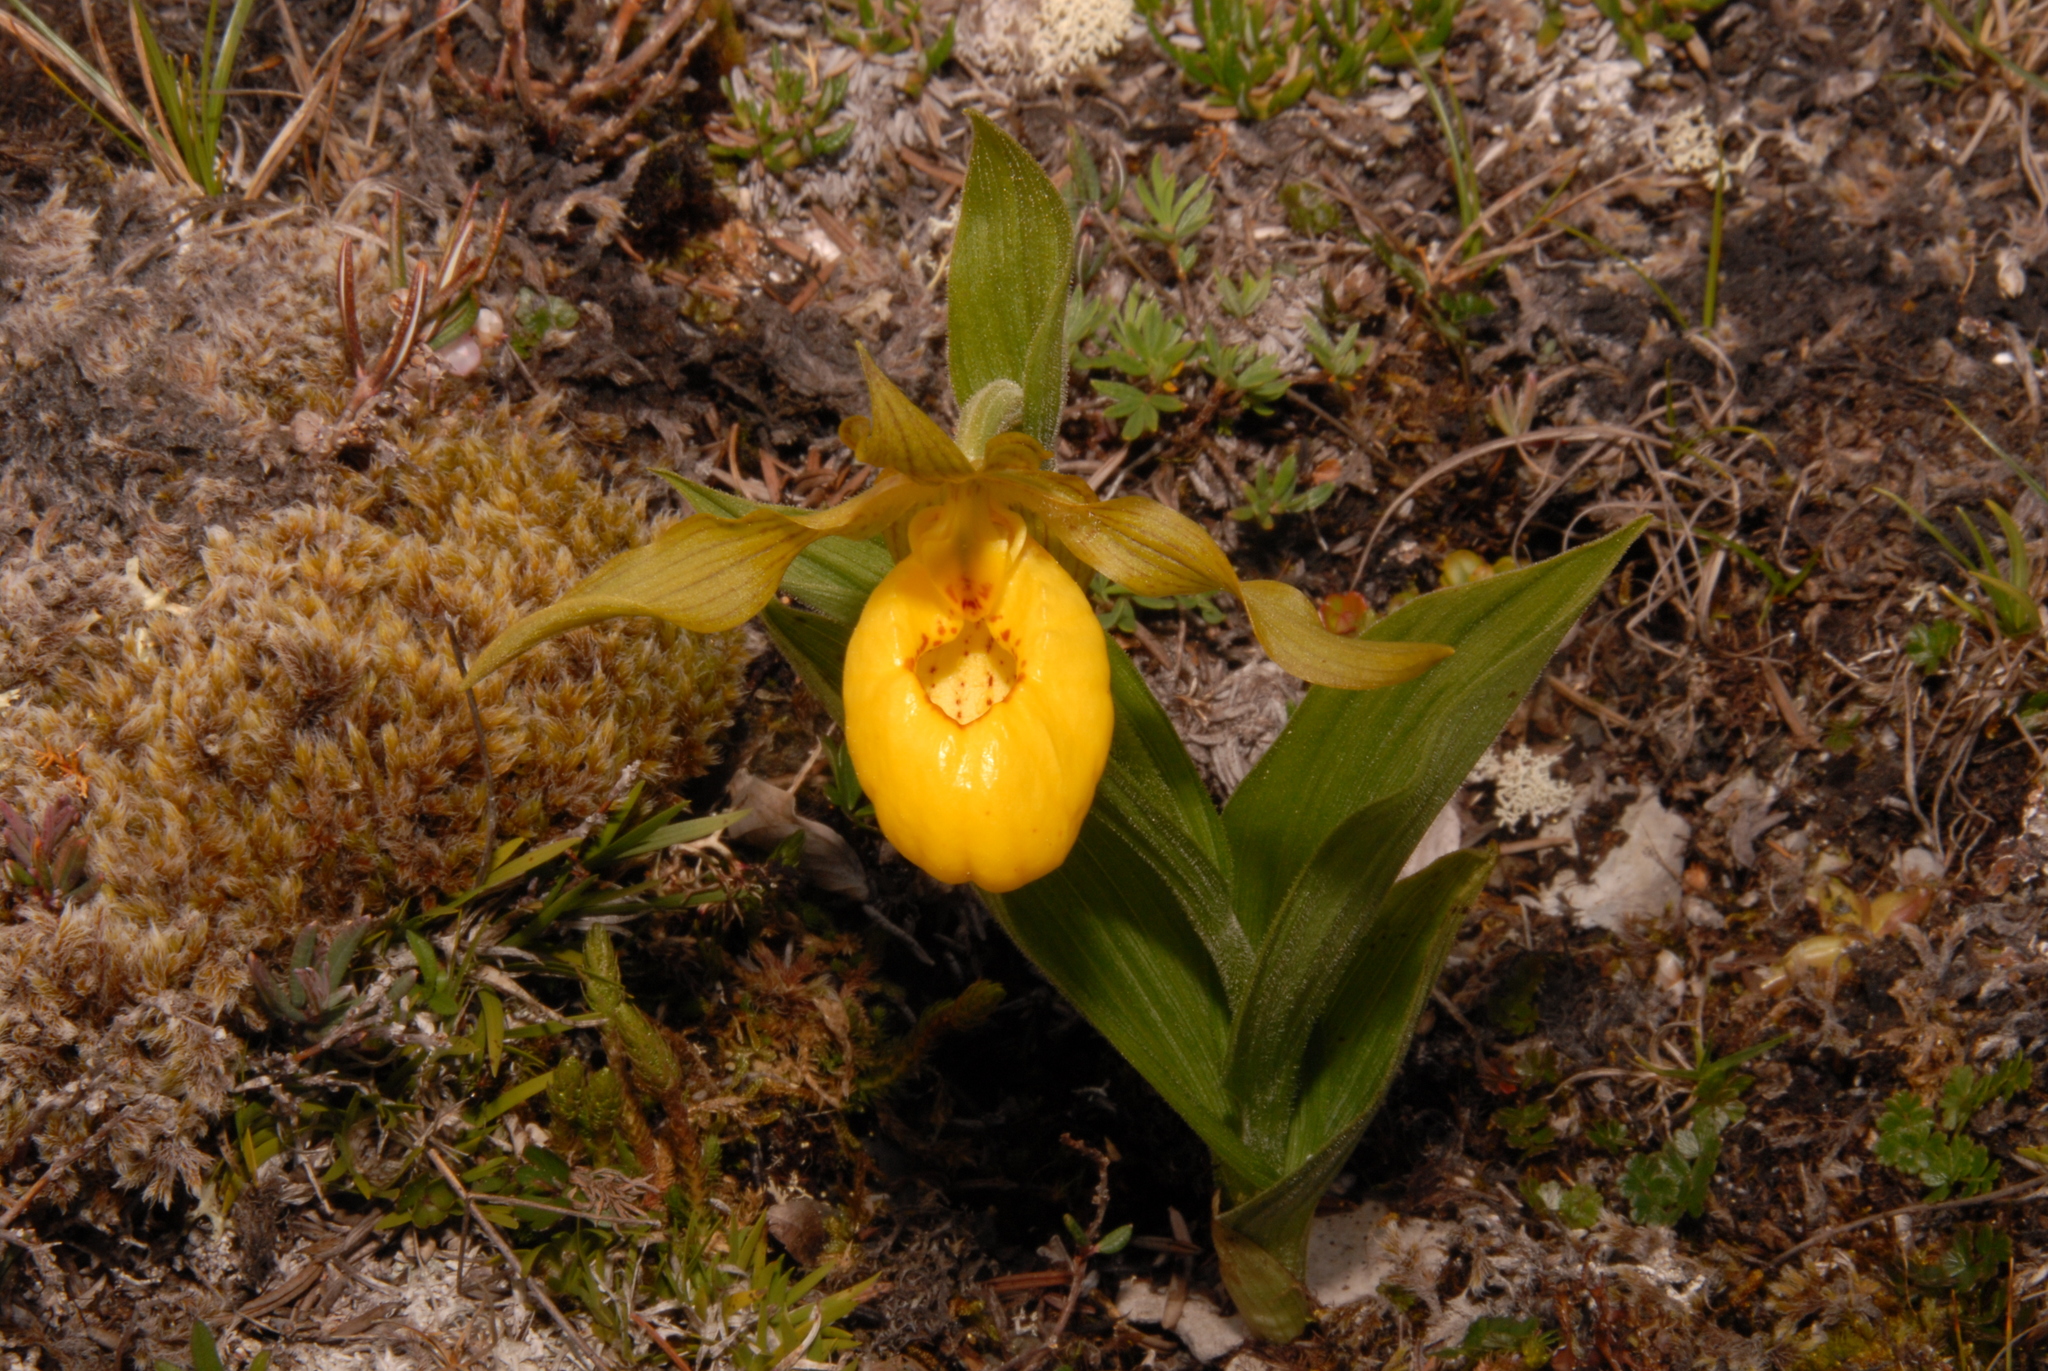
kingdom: Plantae
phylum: Tracheophyta
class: Liliopsida
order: Asparagales
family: Orchidaceae
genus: Cypripedium
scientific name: Cypripedium parviflorum
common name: American yellow lady's-slipper
